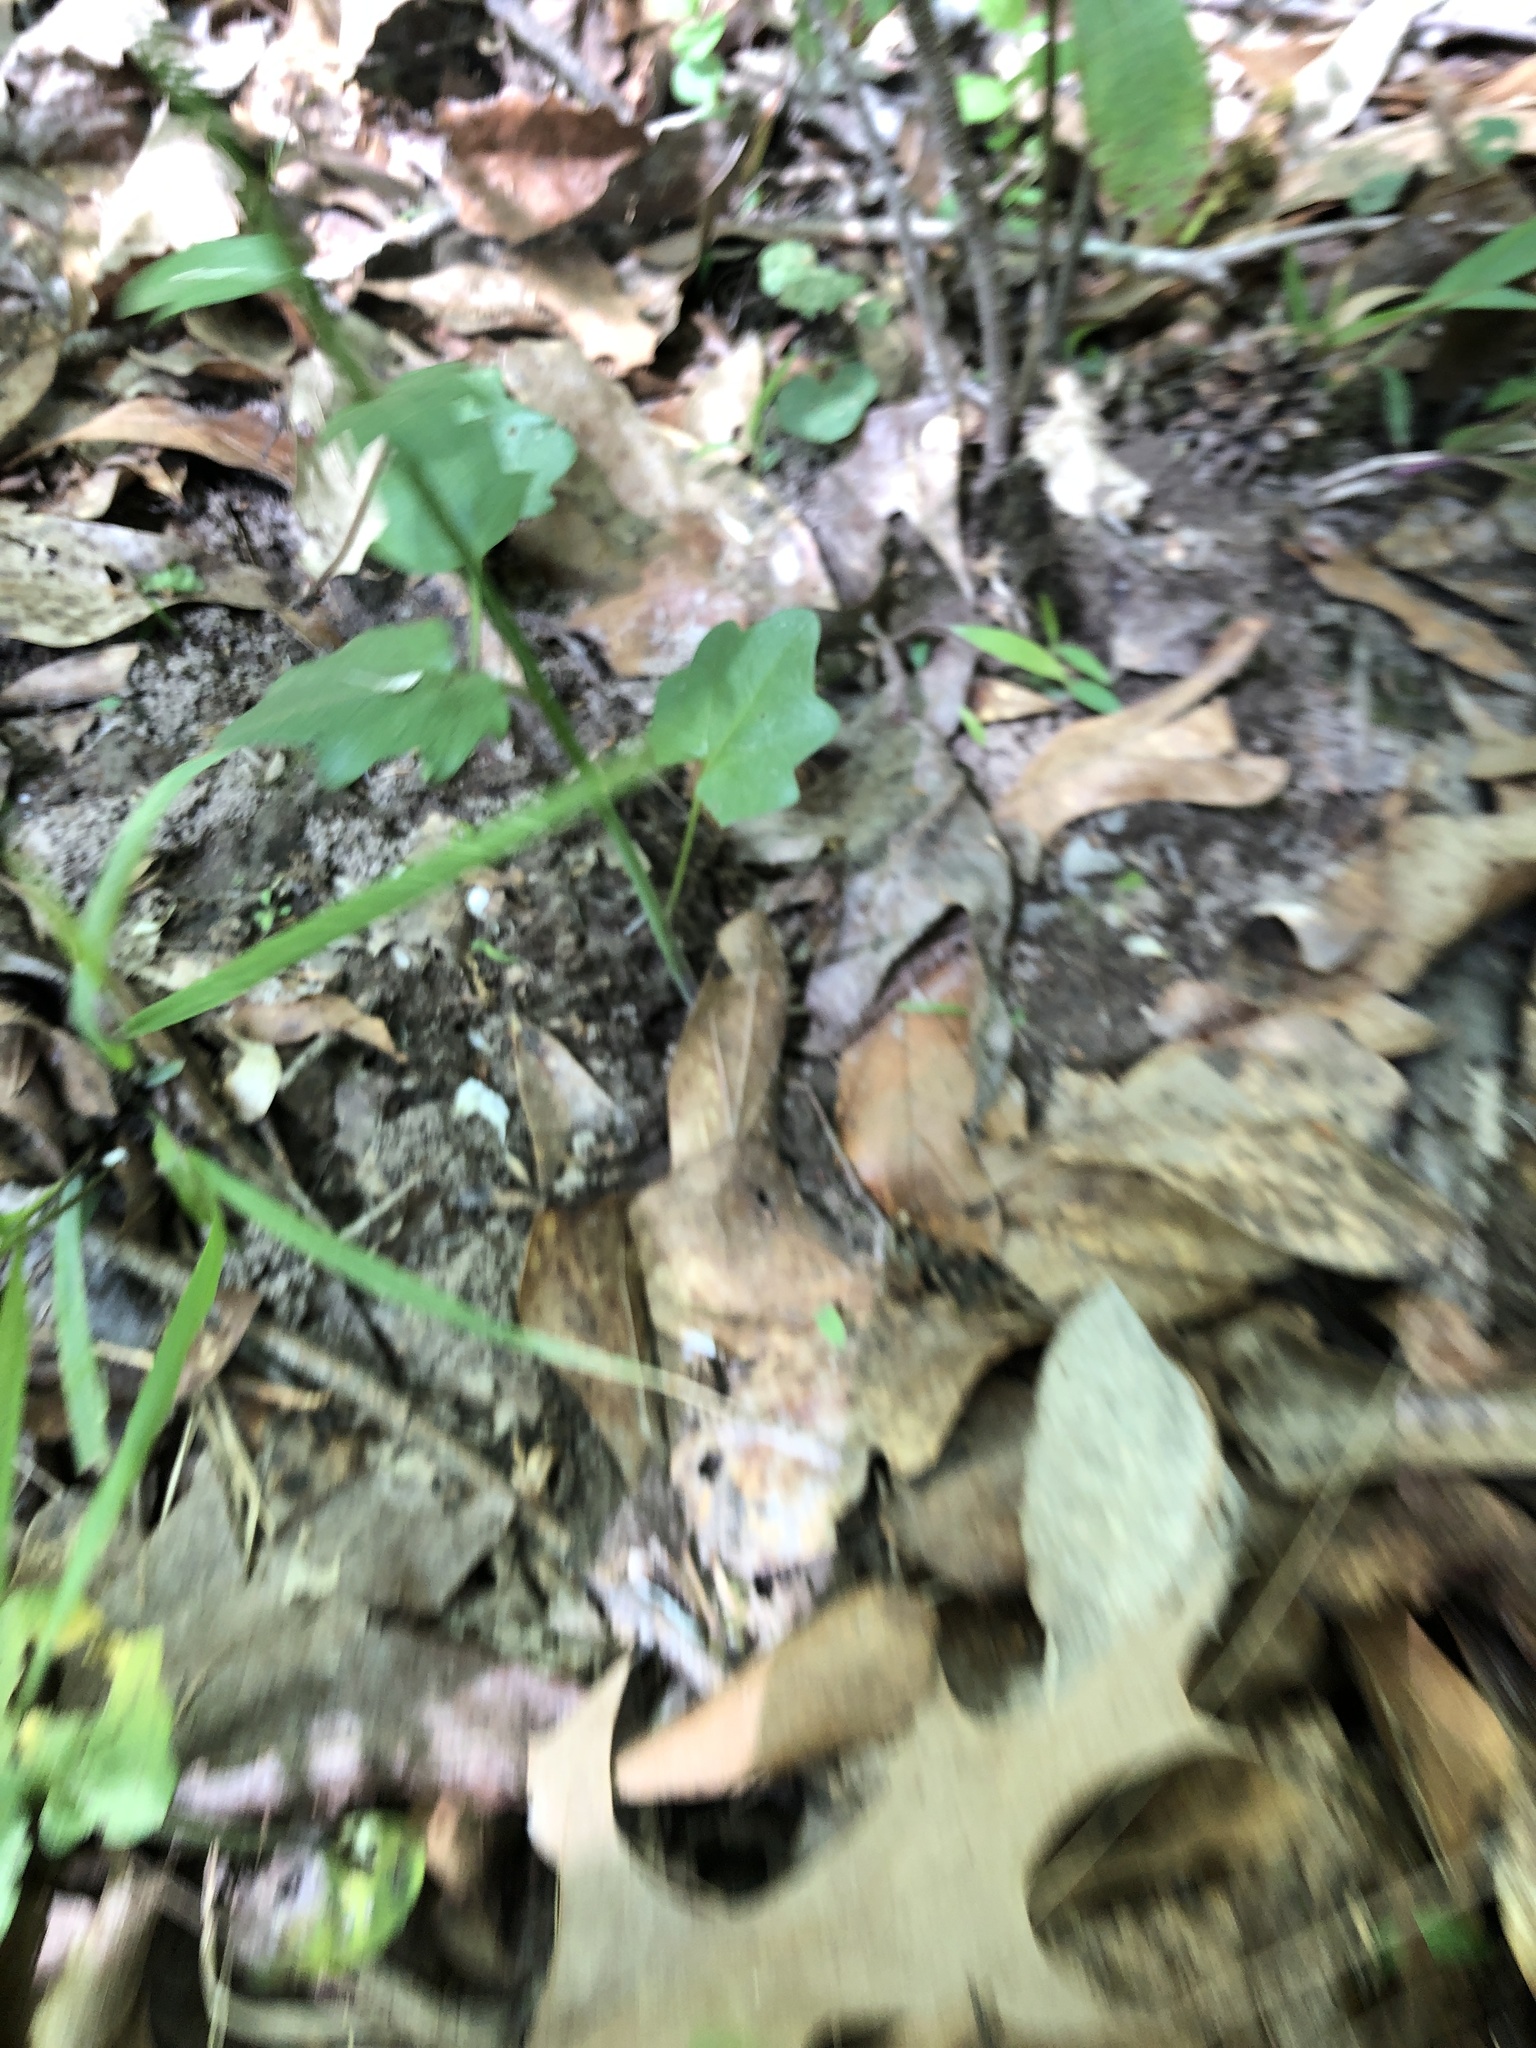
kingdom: Plantae
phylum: Tracheophyta
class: Magnoliopsida
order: Brassicales
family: Brassicaceae
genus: Cardamine
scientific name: Cardamine bulbosa
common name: Spring cress
